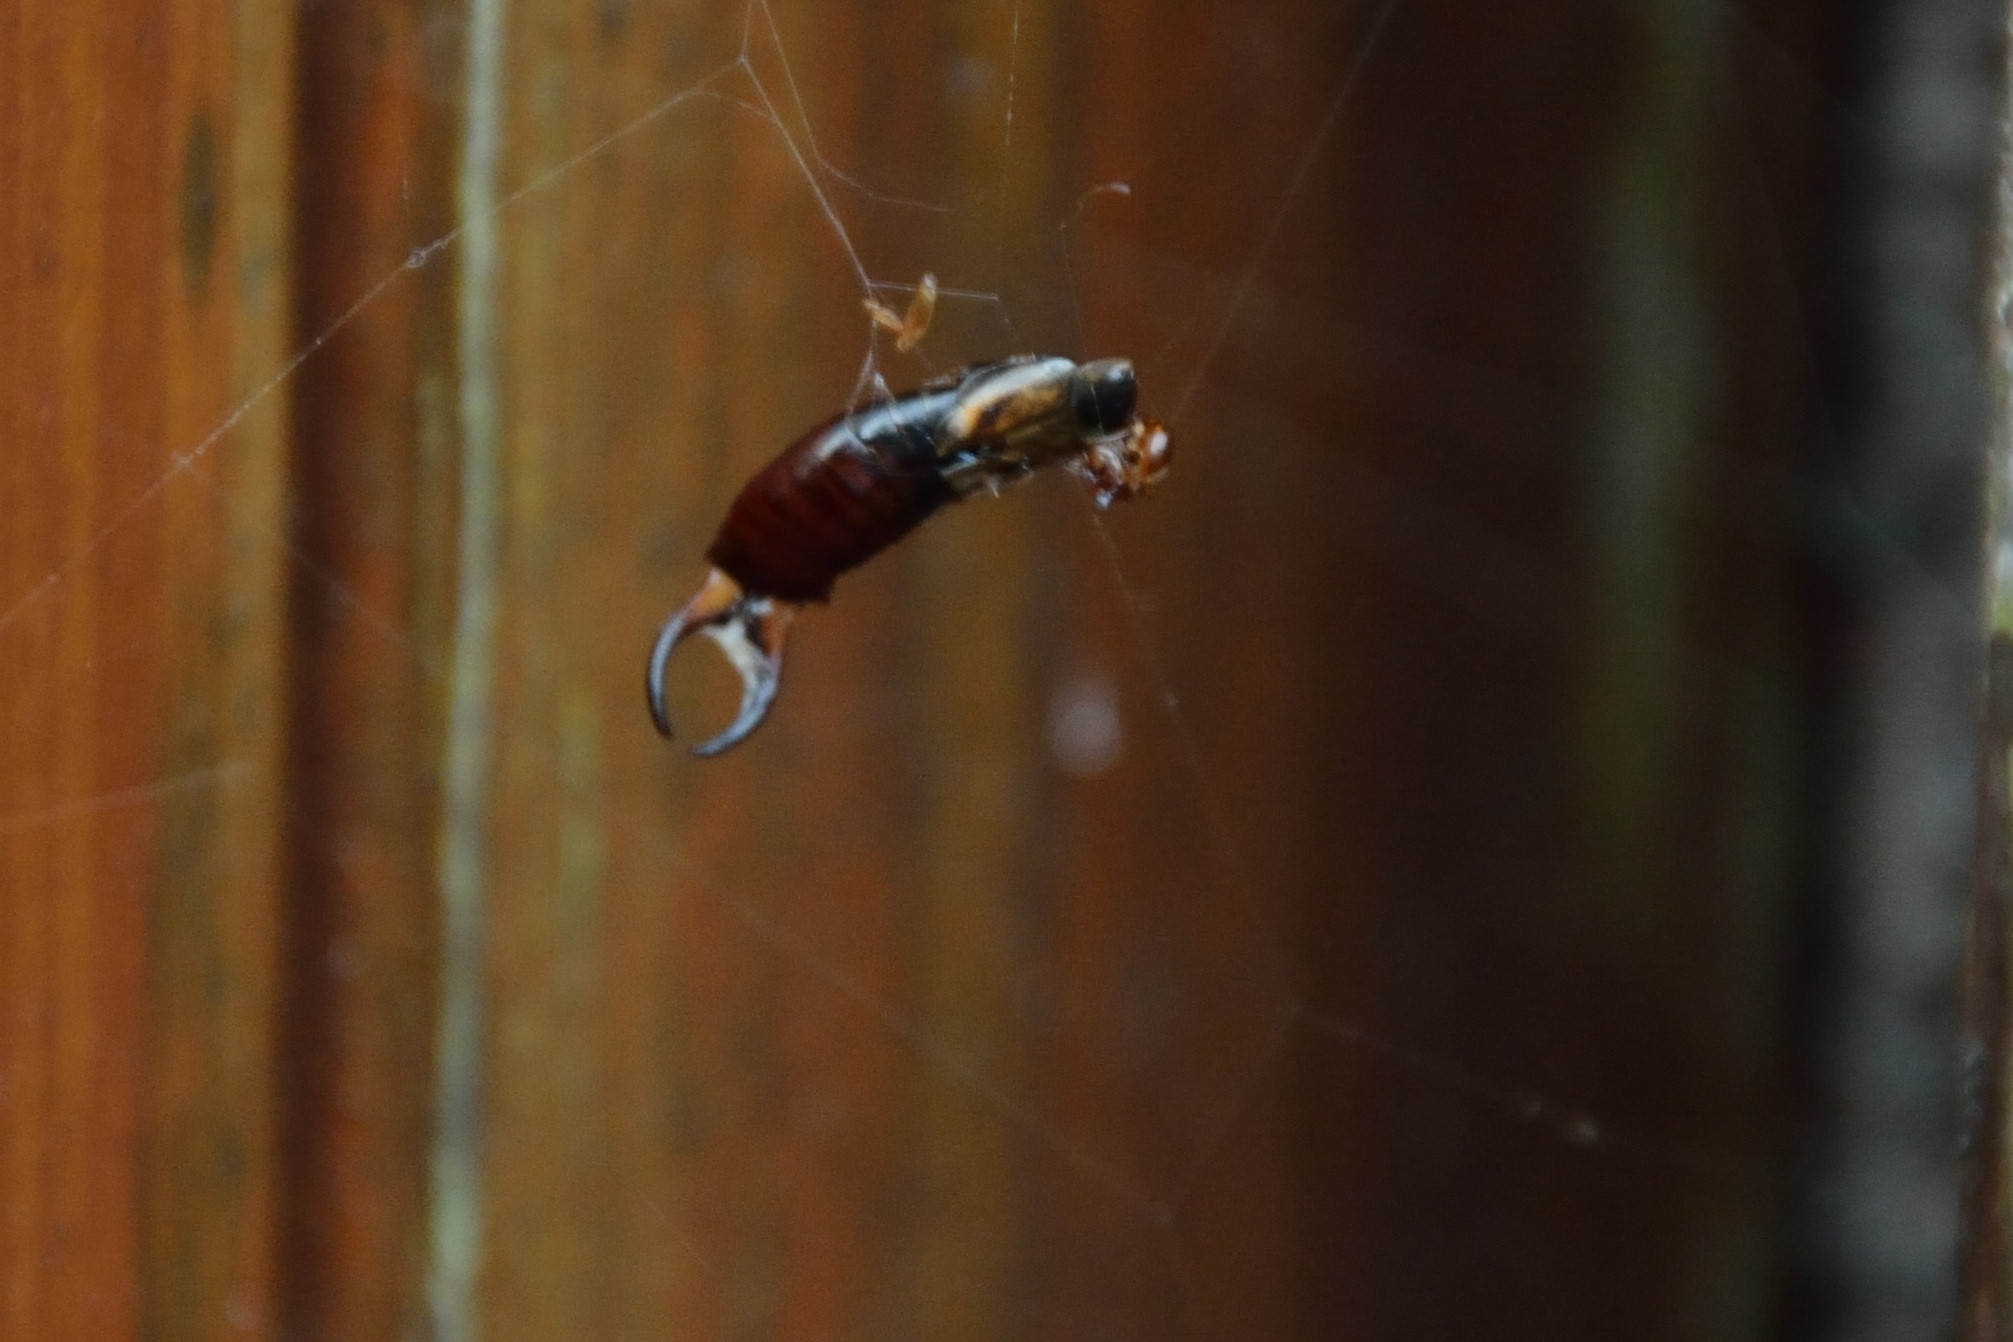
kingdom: Animalia
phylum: Arthropoda
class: Insecta
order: Dermaptera
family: Forficulidae
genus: Forficula
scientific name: Forficula
